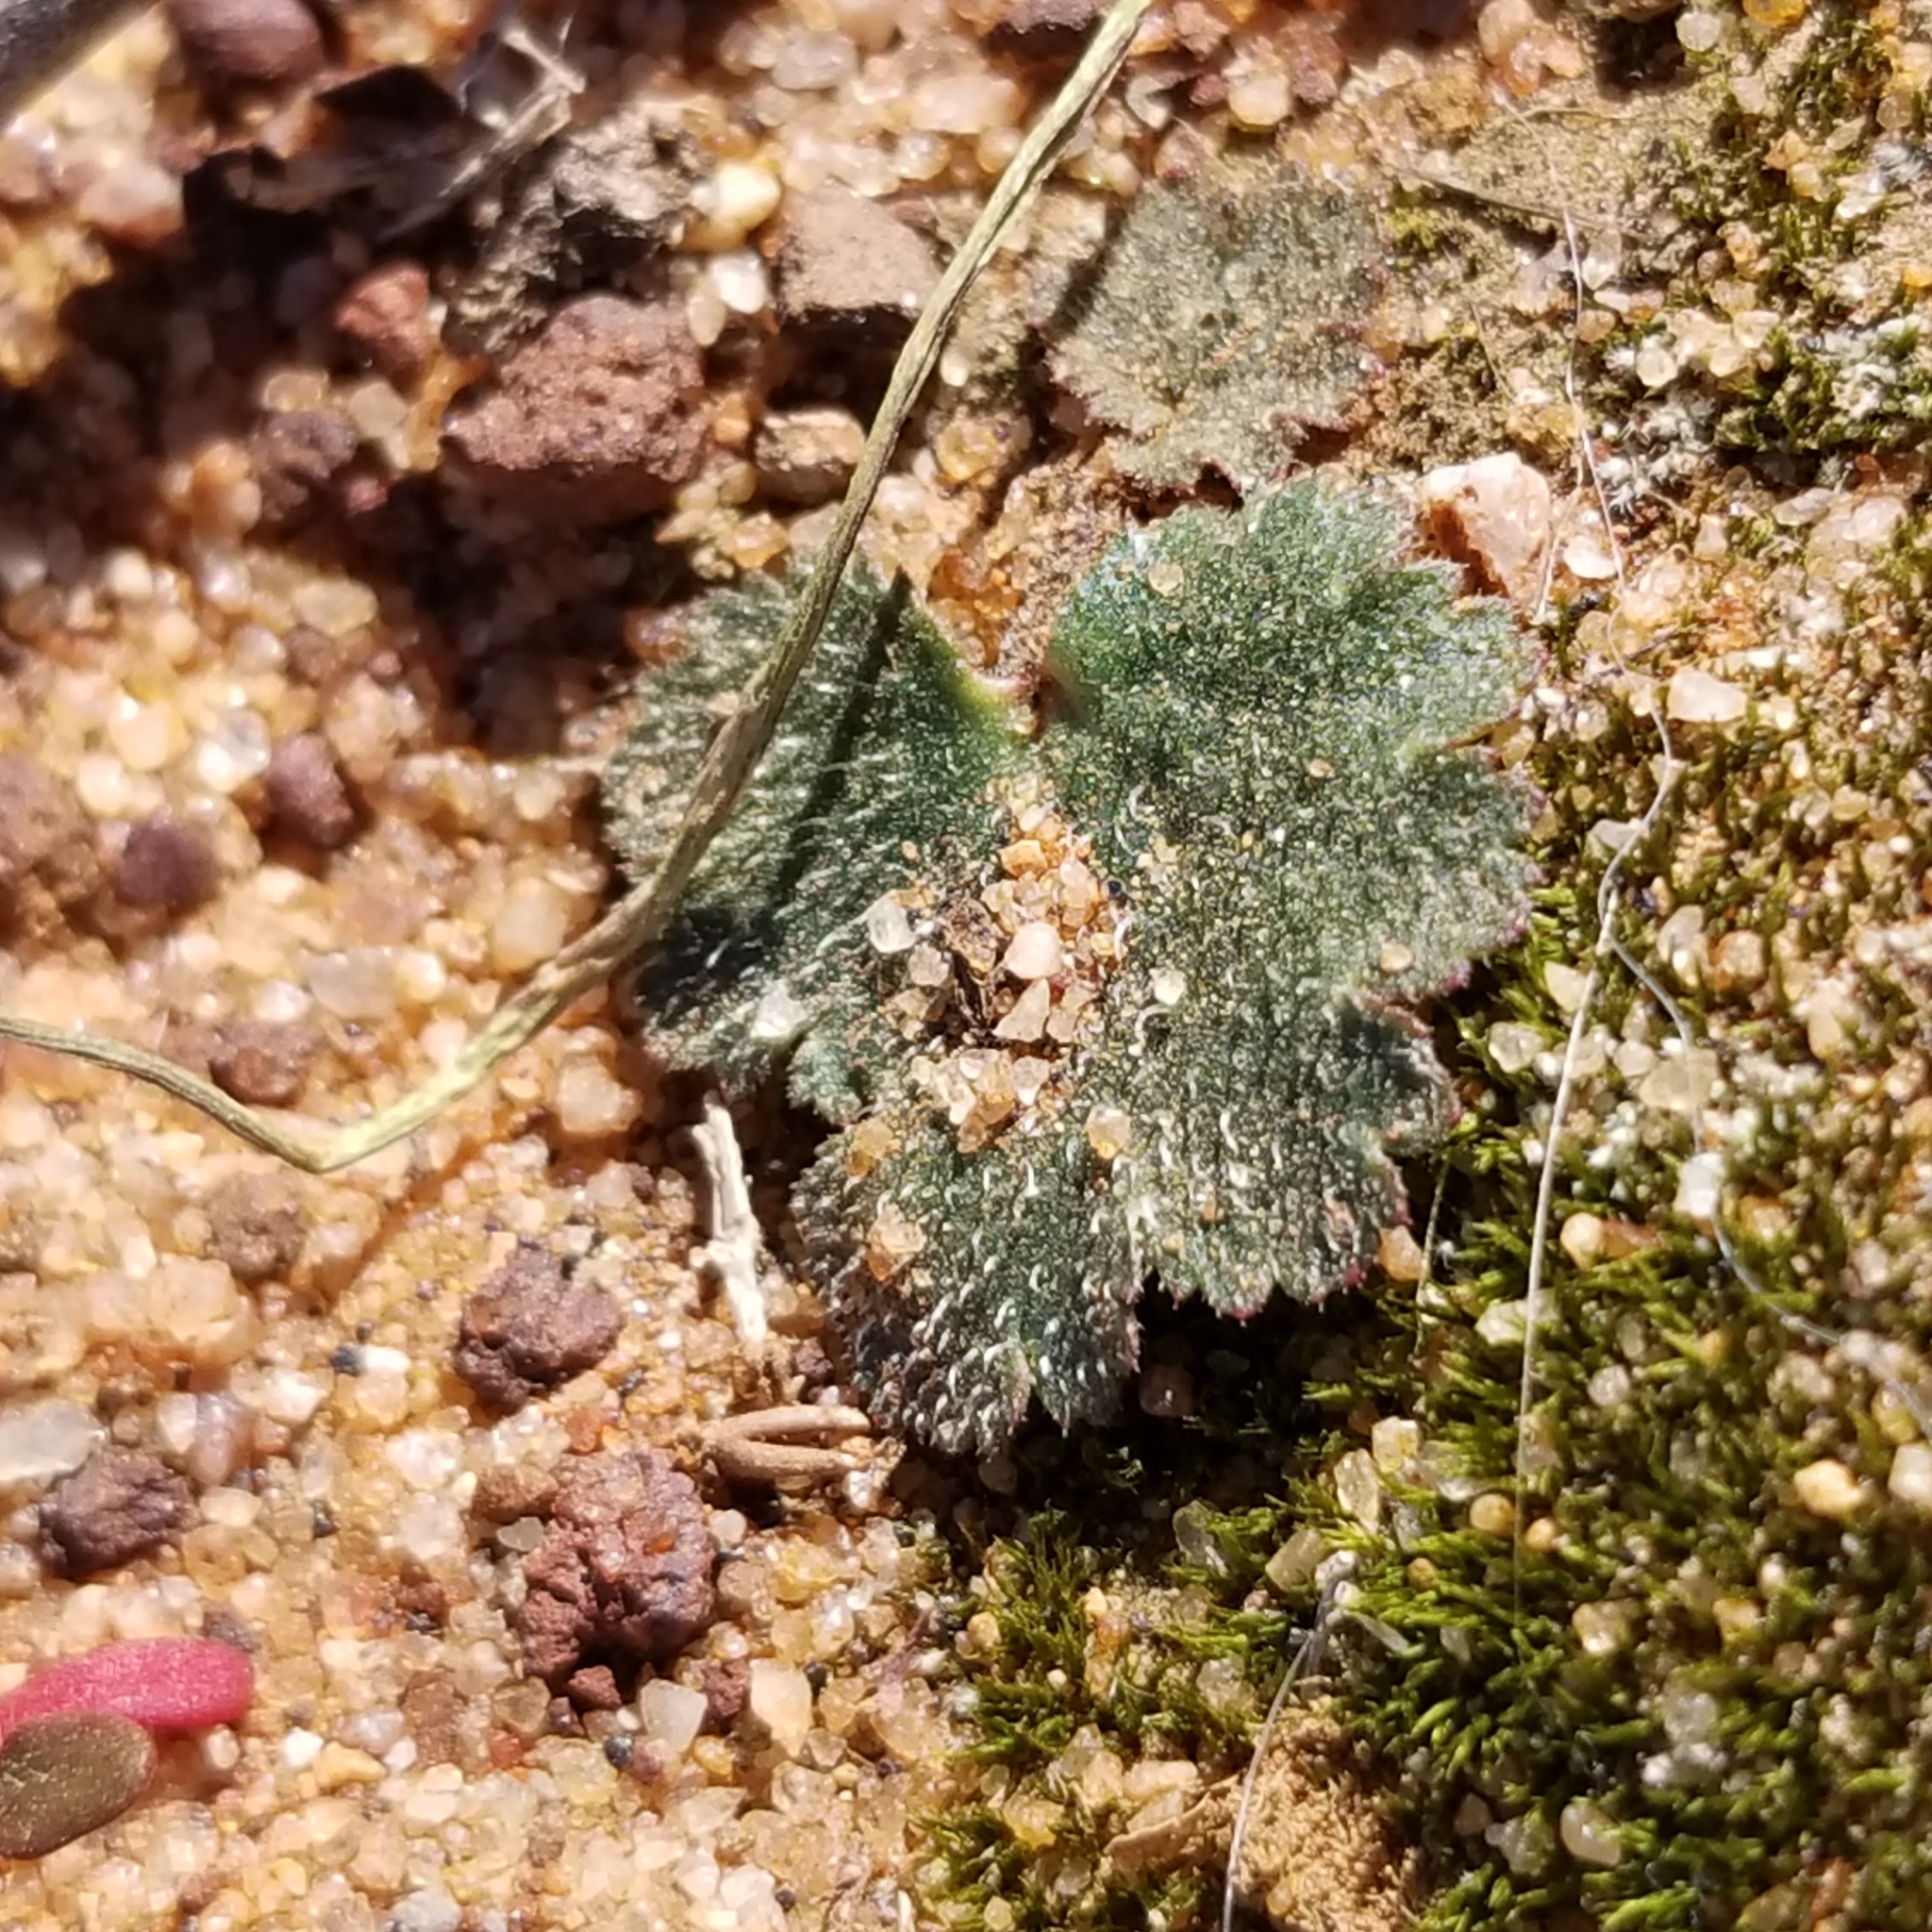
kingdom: Plantae
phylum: Tracheophyta
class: Magnoliopsida
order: Saxifragales
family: Saxifragaceae
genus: Jepsonia
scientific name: Jepsonia parryi
